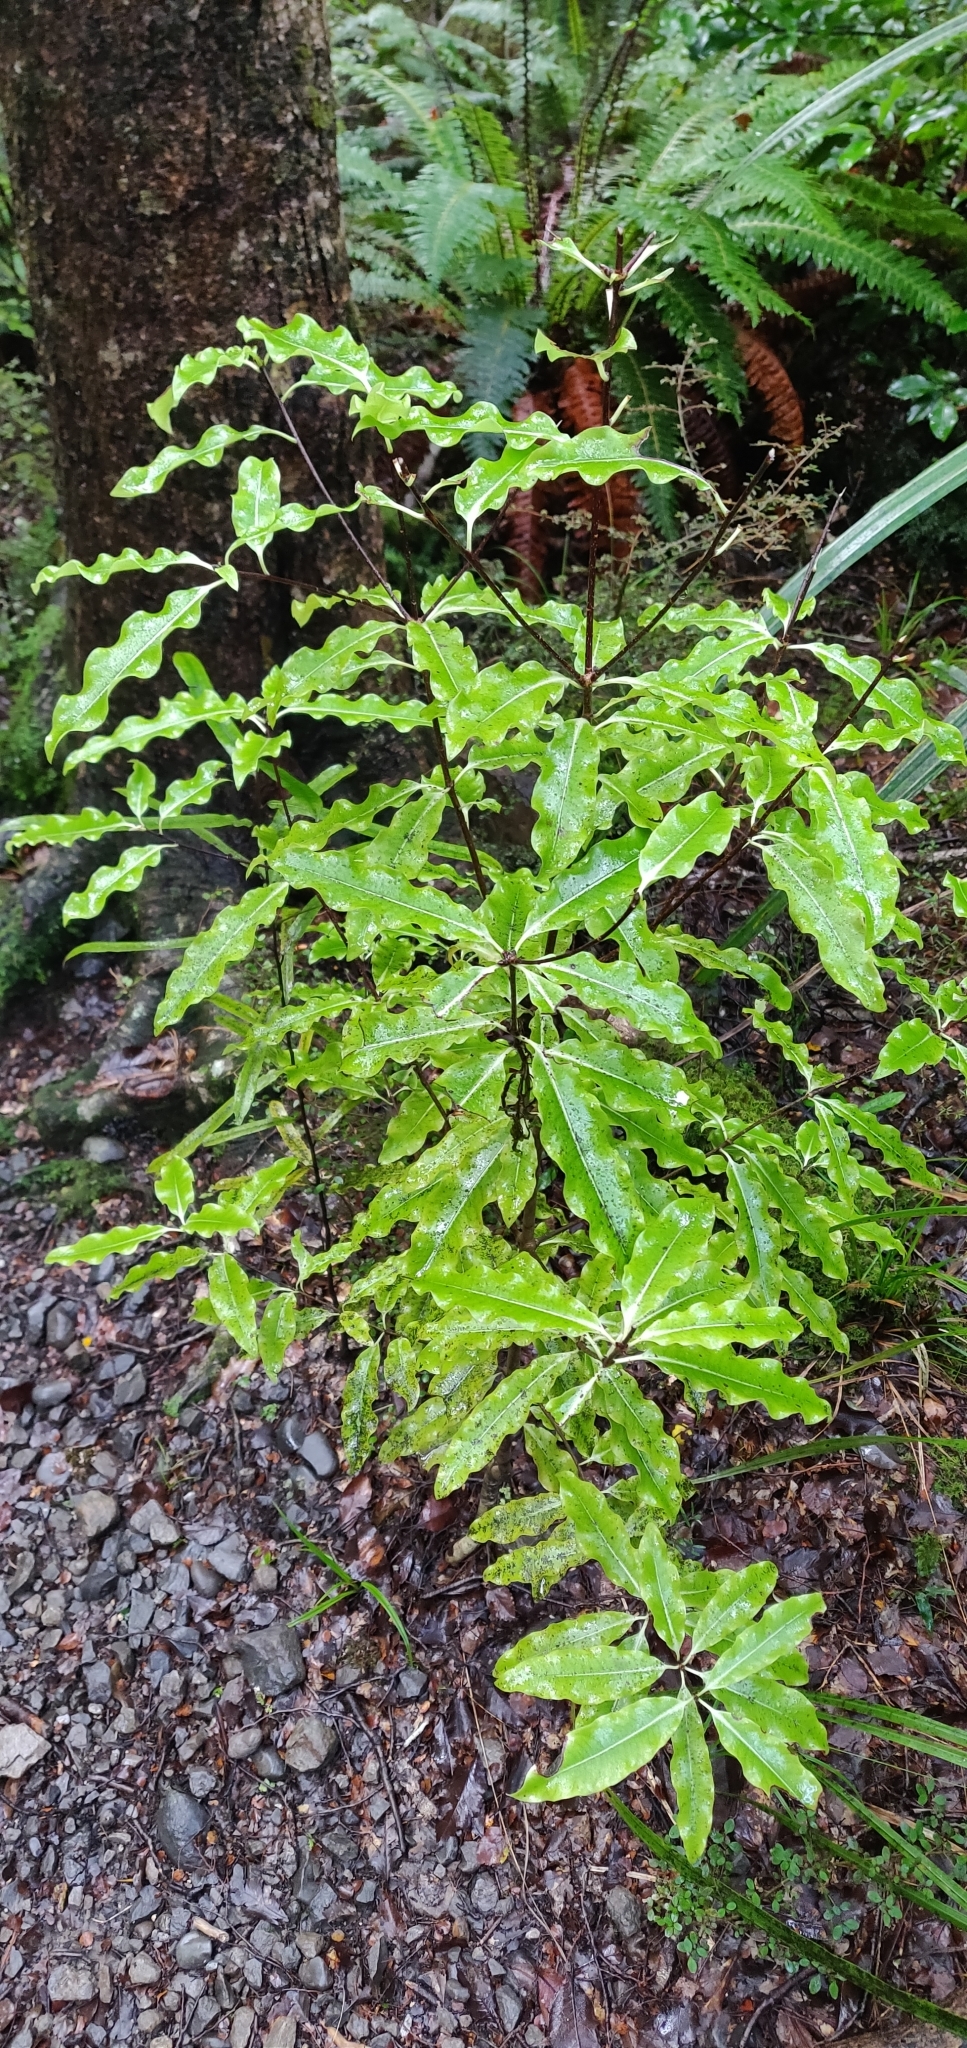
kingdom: Plantae
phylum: Tracheophyta
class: Magnoliopsida
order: Apiales
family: Pittosporaceae
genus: Pittosporum
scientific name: Pittosporum eugenioides
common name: Lemonwood
